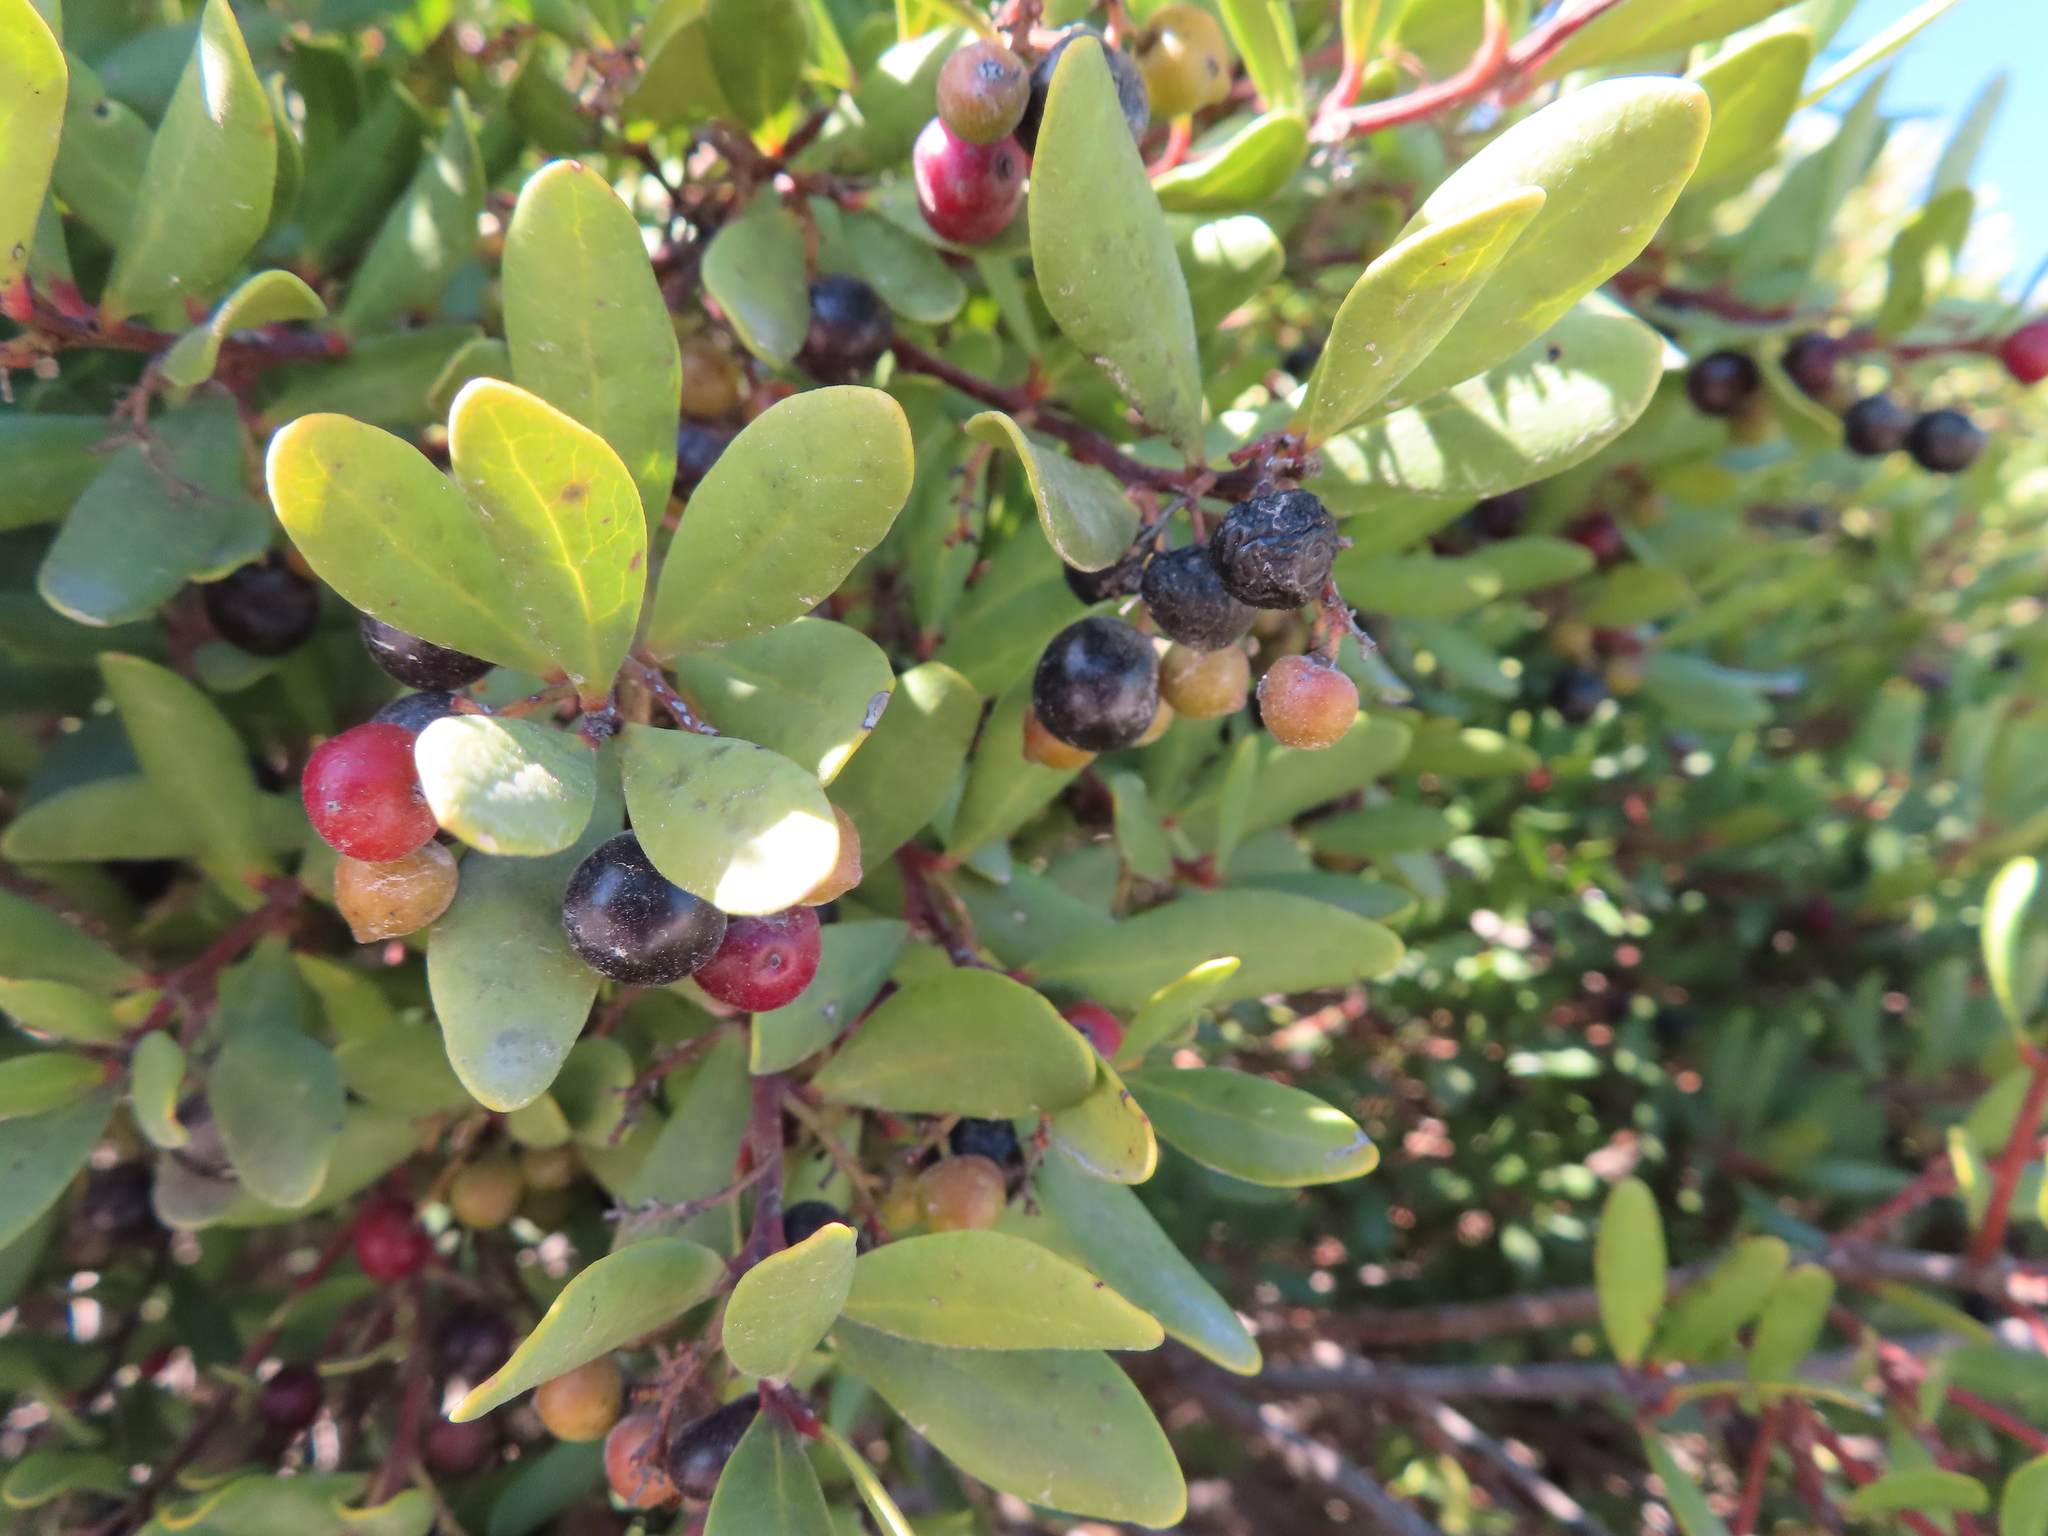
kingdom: Plantae
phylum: Tracheophyta
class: Magnoliopsida
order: Ericales
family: Ebenaceae
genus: Euclea
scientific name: Euclea racemosa
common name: Dune guarri
